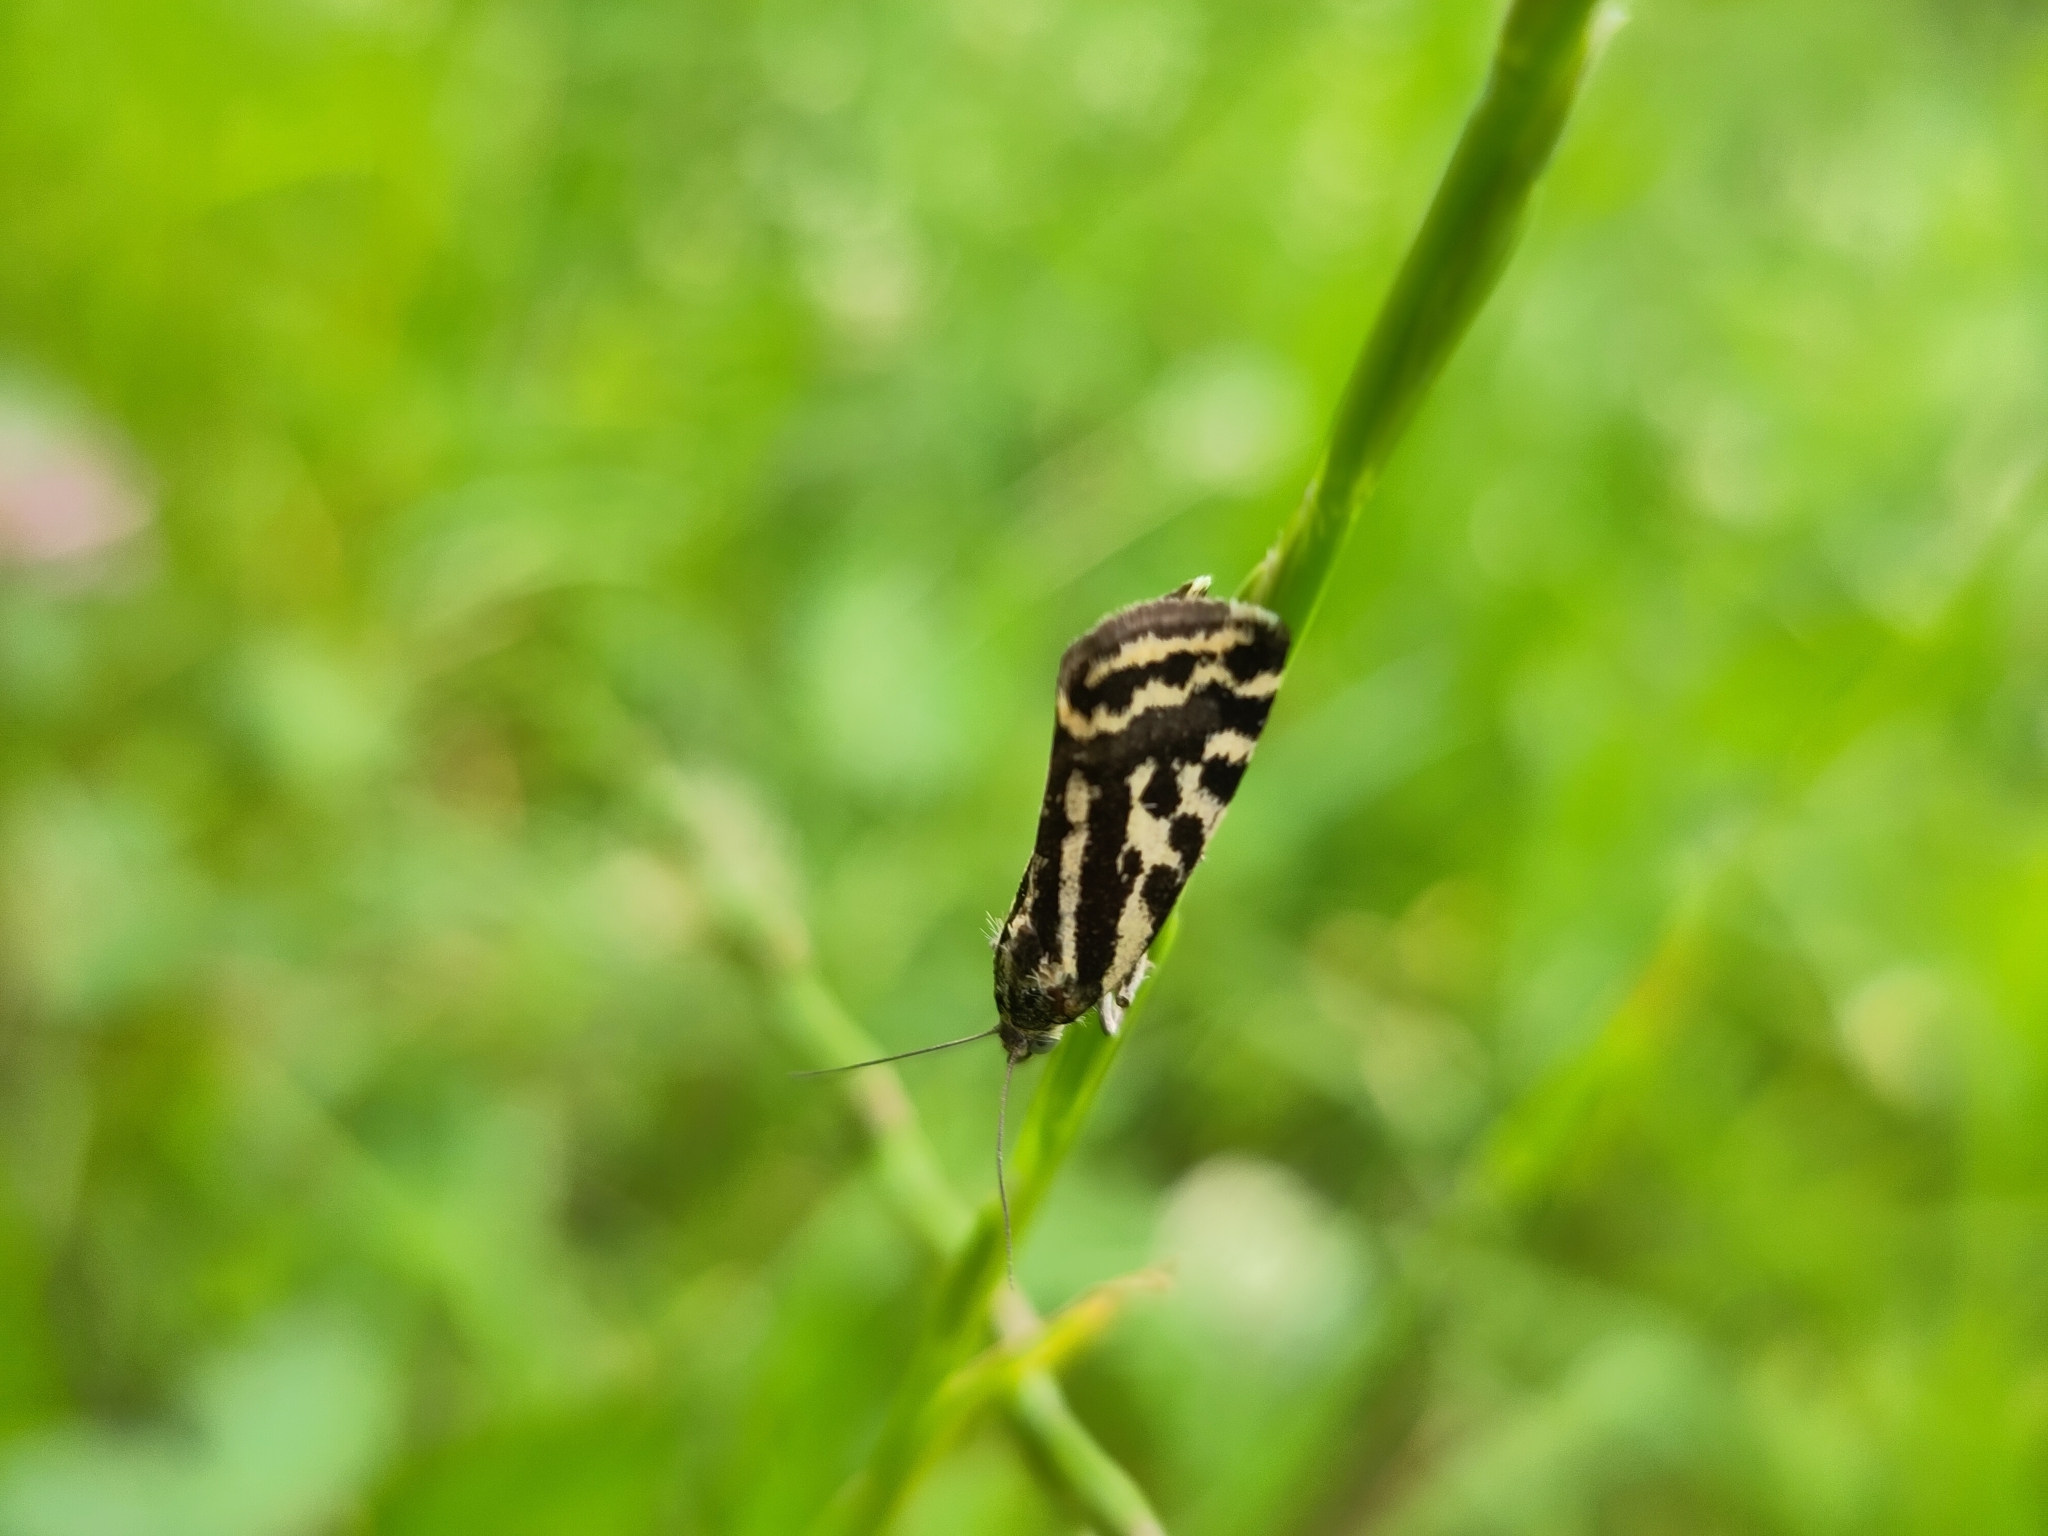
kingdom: Animalia
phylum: Arthropoda
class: Insecta
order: Lepidoptera
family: Noctuidae
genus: Acontia
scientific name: Acontia trabealis
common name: Spotted sulphur
